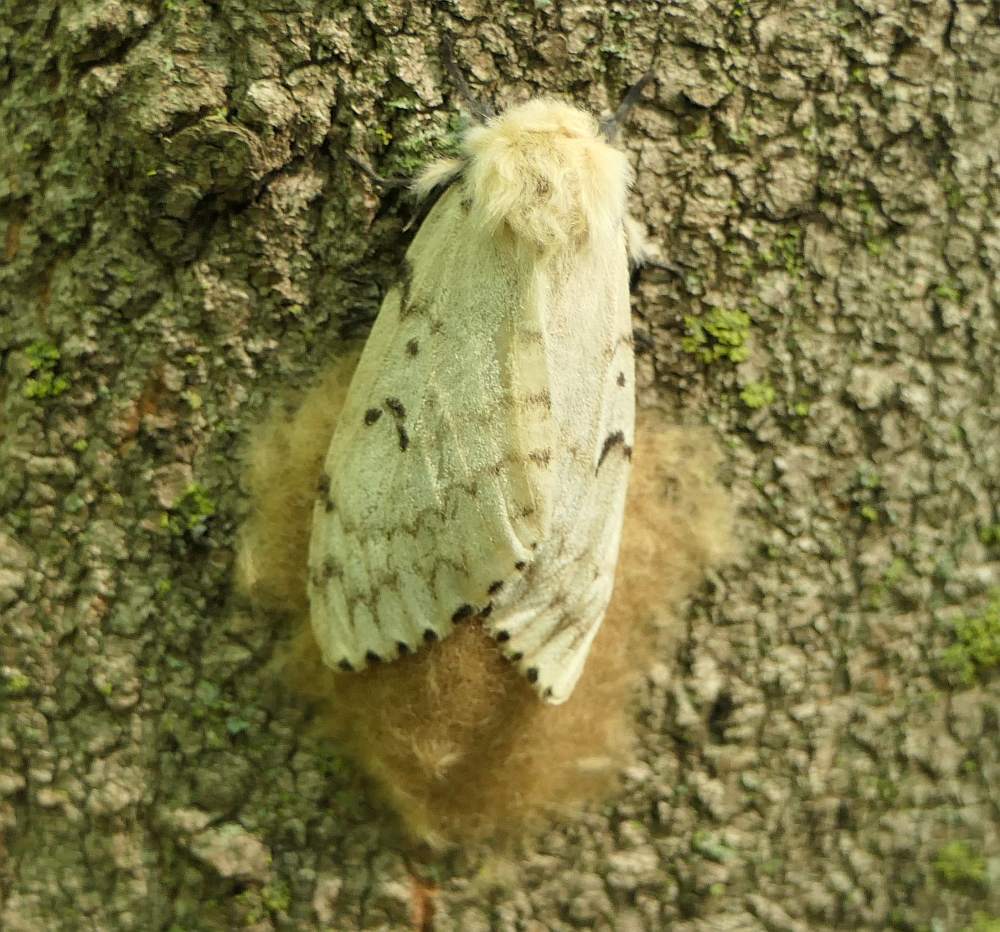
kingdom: Animalia
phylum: Arthropoda
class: Insecta
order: Lepidoptera
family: Erebidae
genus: Lymantria
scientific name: Lymantria dispar
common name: Gypsy moth
